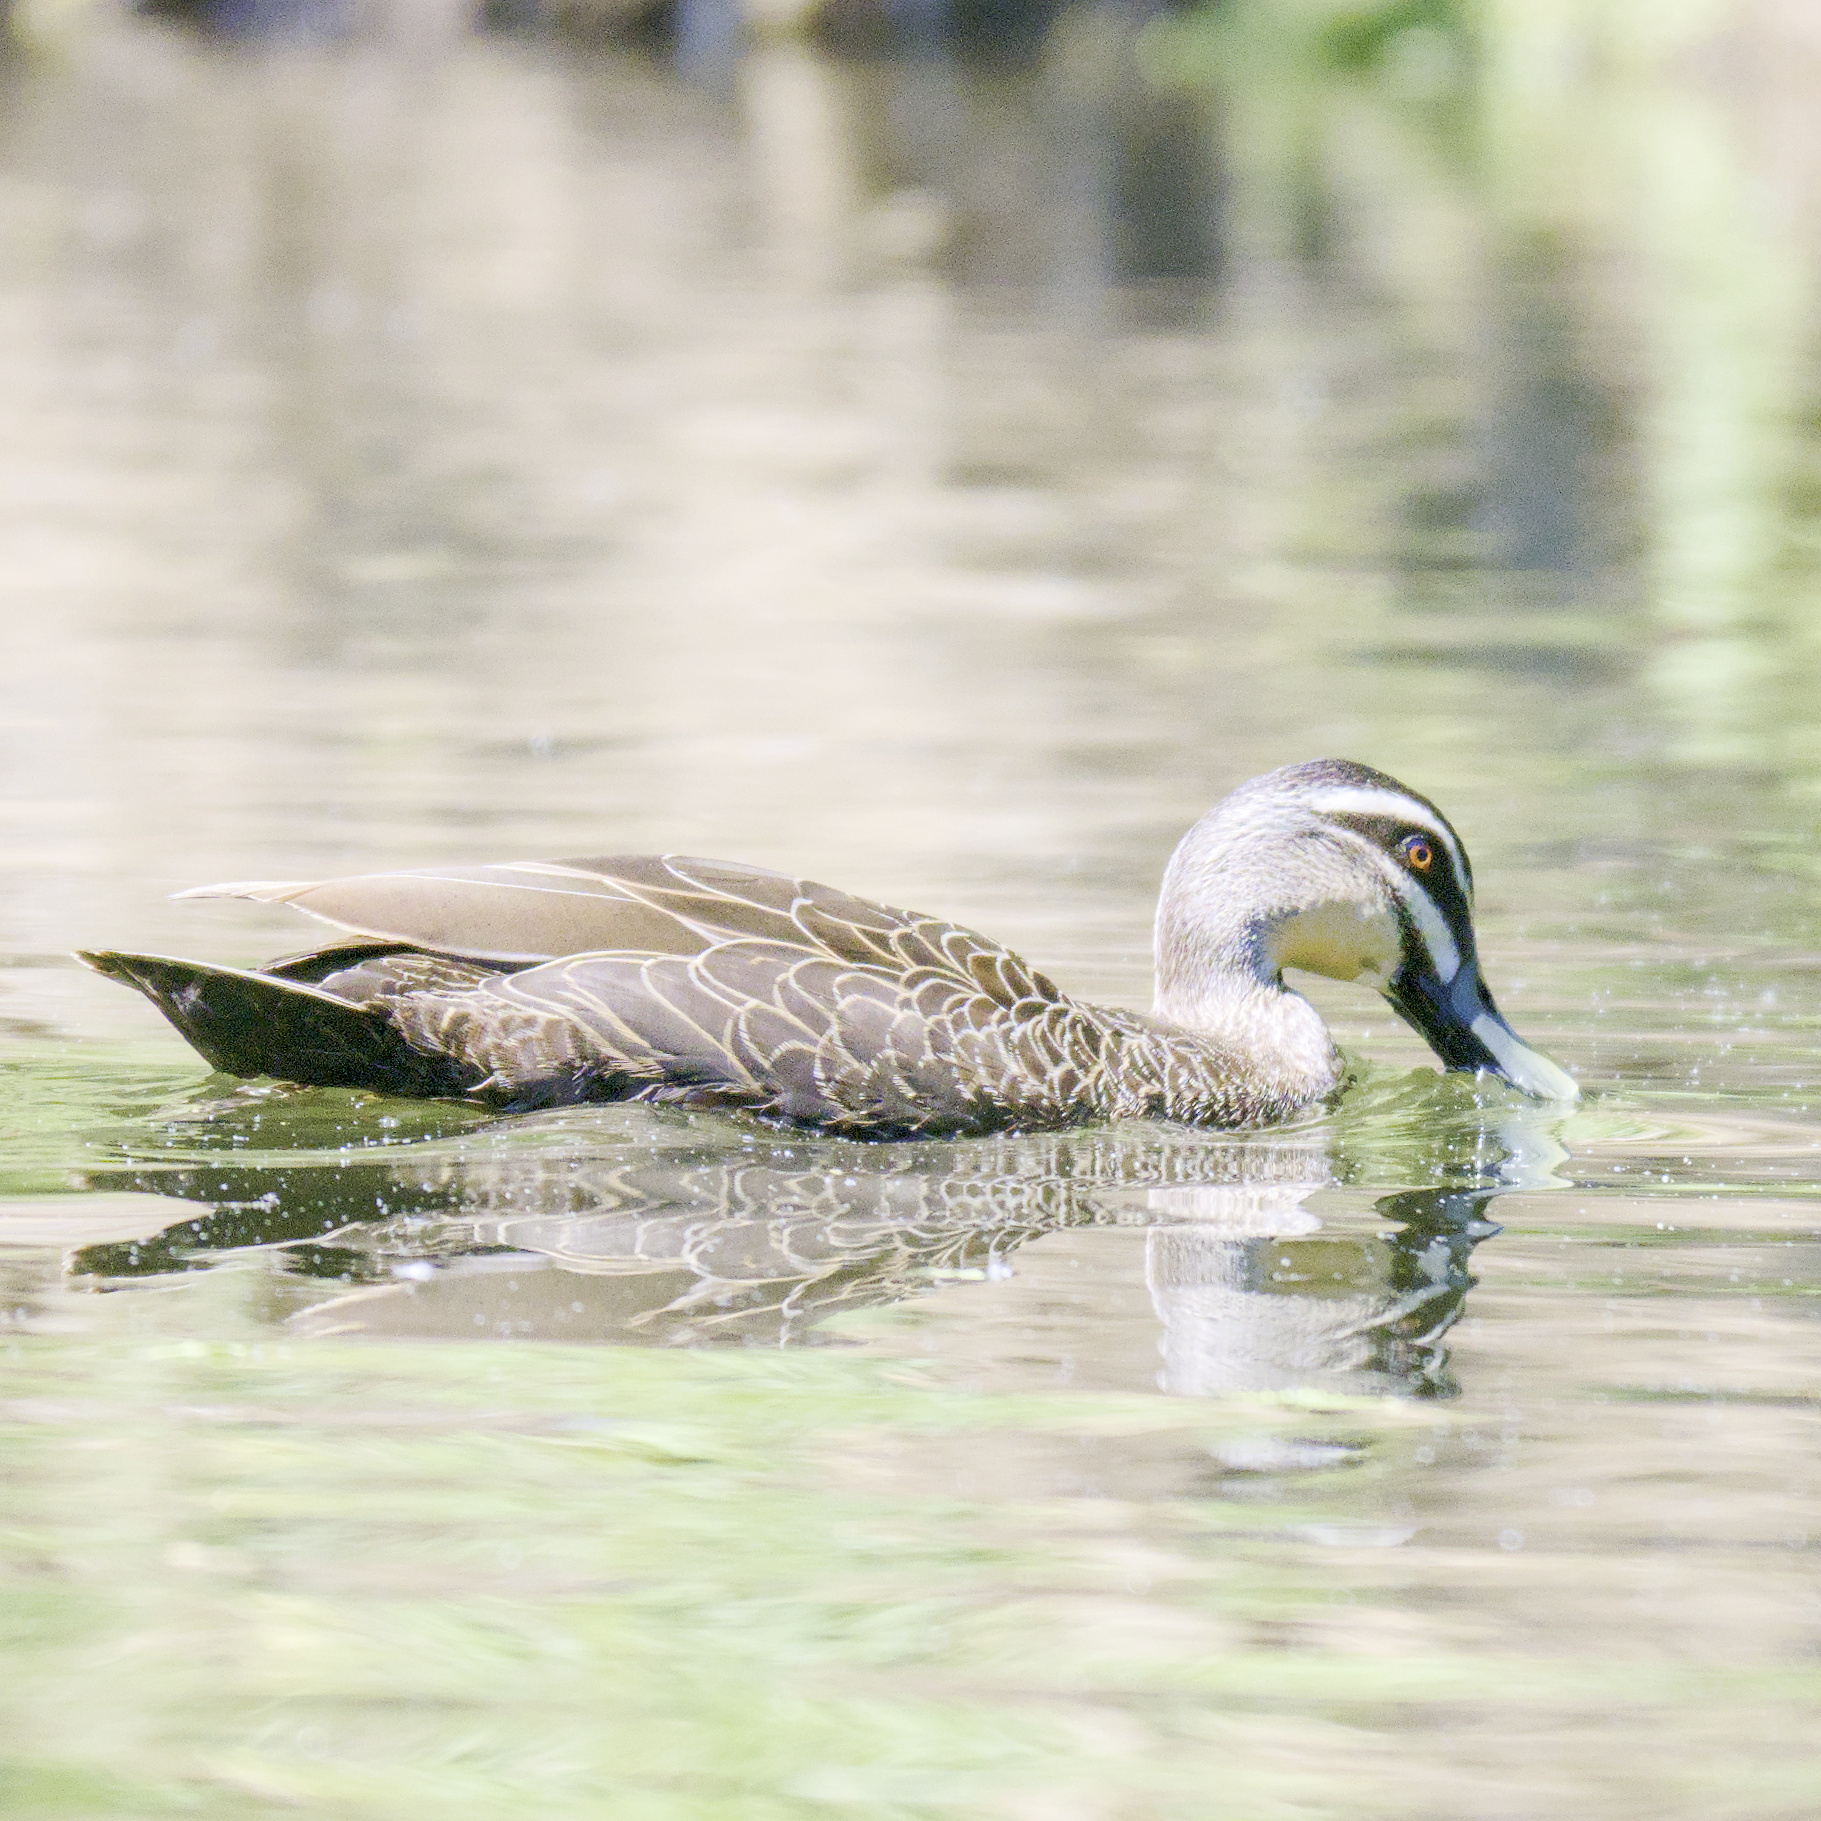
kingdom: Animalia
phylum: Chordata
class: Aves
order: Anseriformes
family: Anatidae
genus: Anas
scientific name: Anas superciliosa
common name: Pacific black duck
